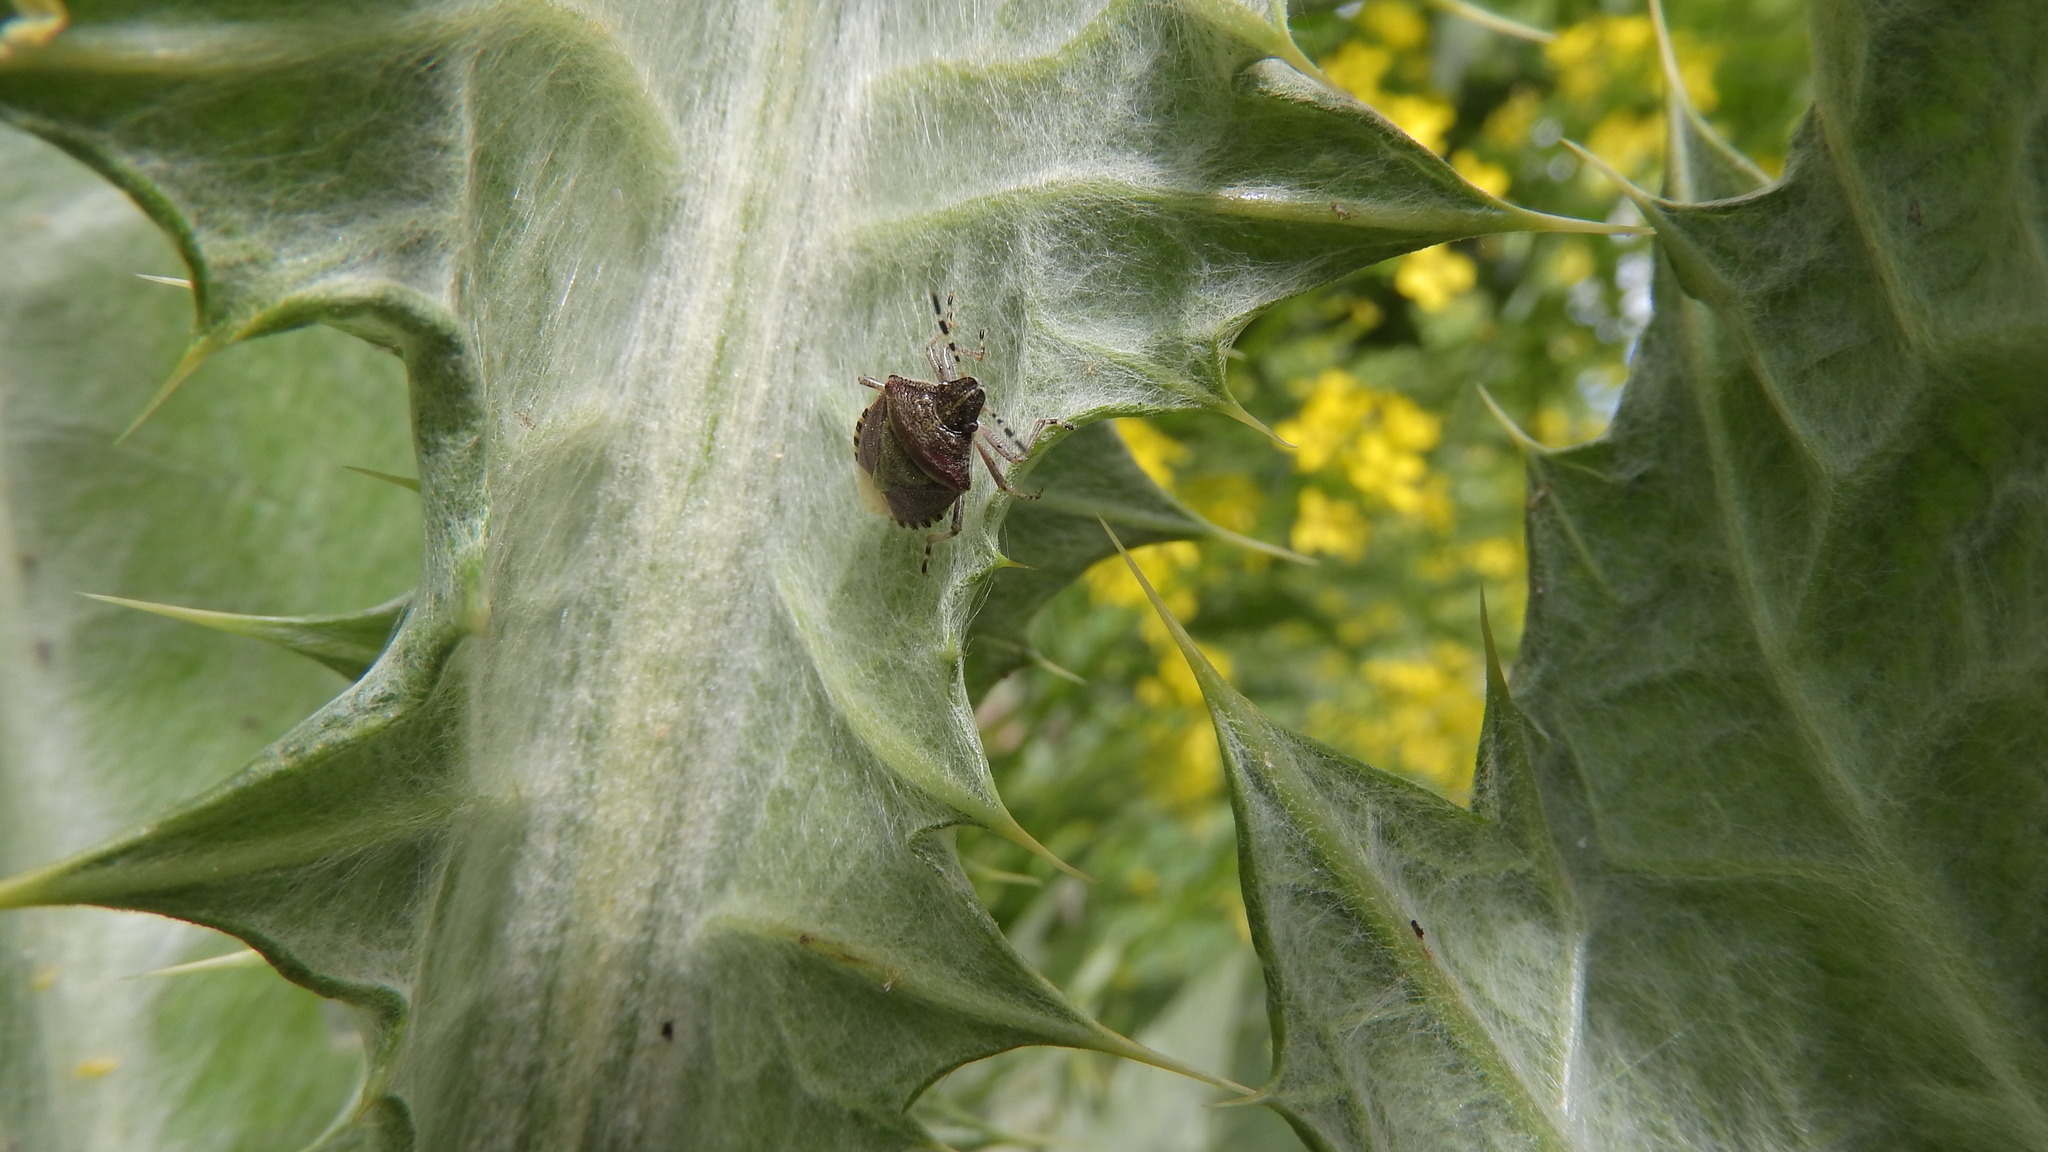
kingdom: Animalia
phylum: Arthropoda
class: Insecta
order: Hemiptera
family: Pentatomidae
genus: Dolycoris
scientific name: Dolycoris baccarum
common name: Sloe bug
